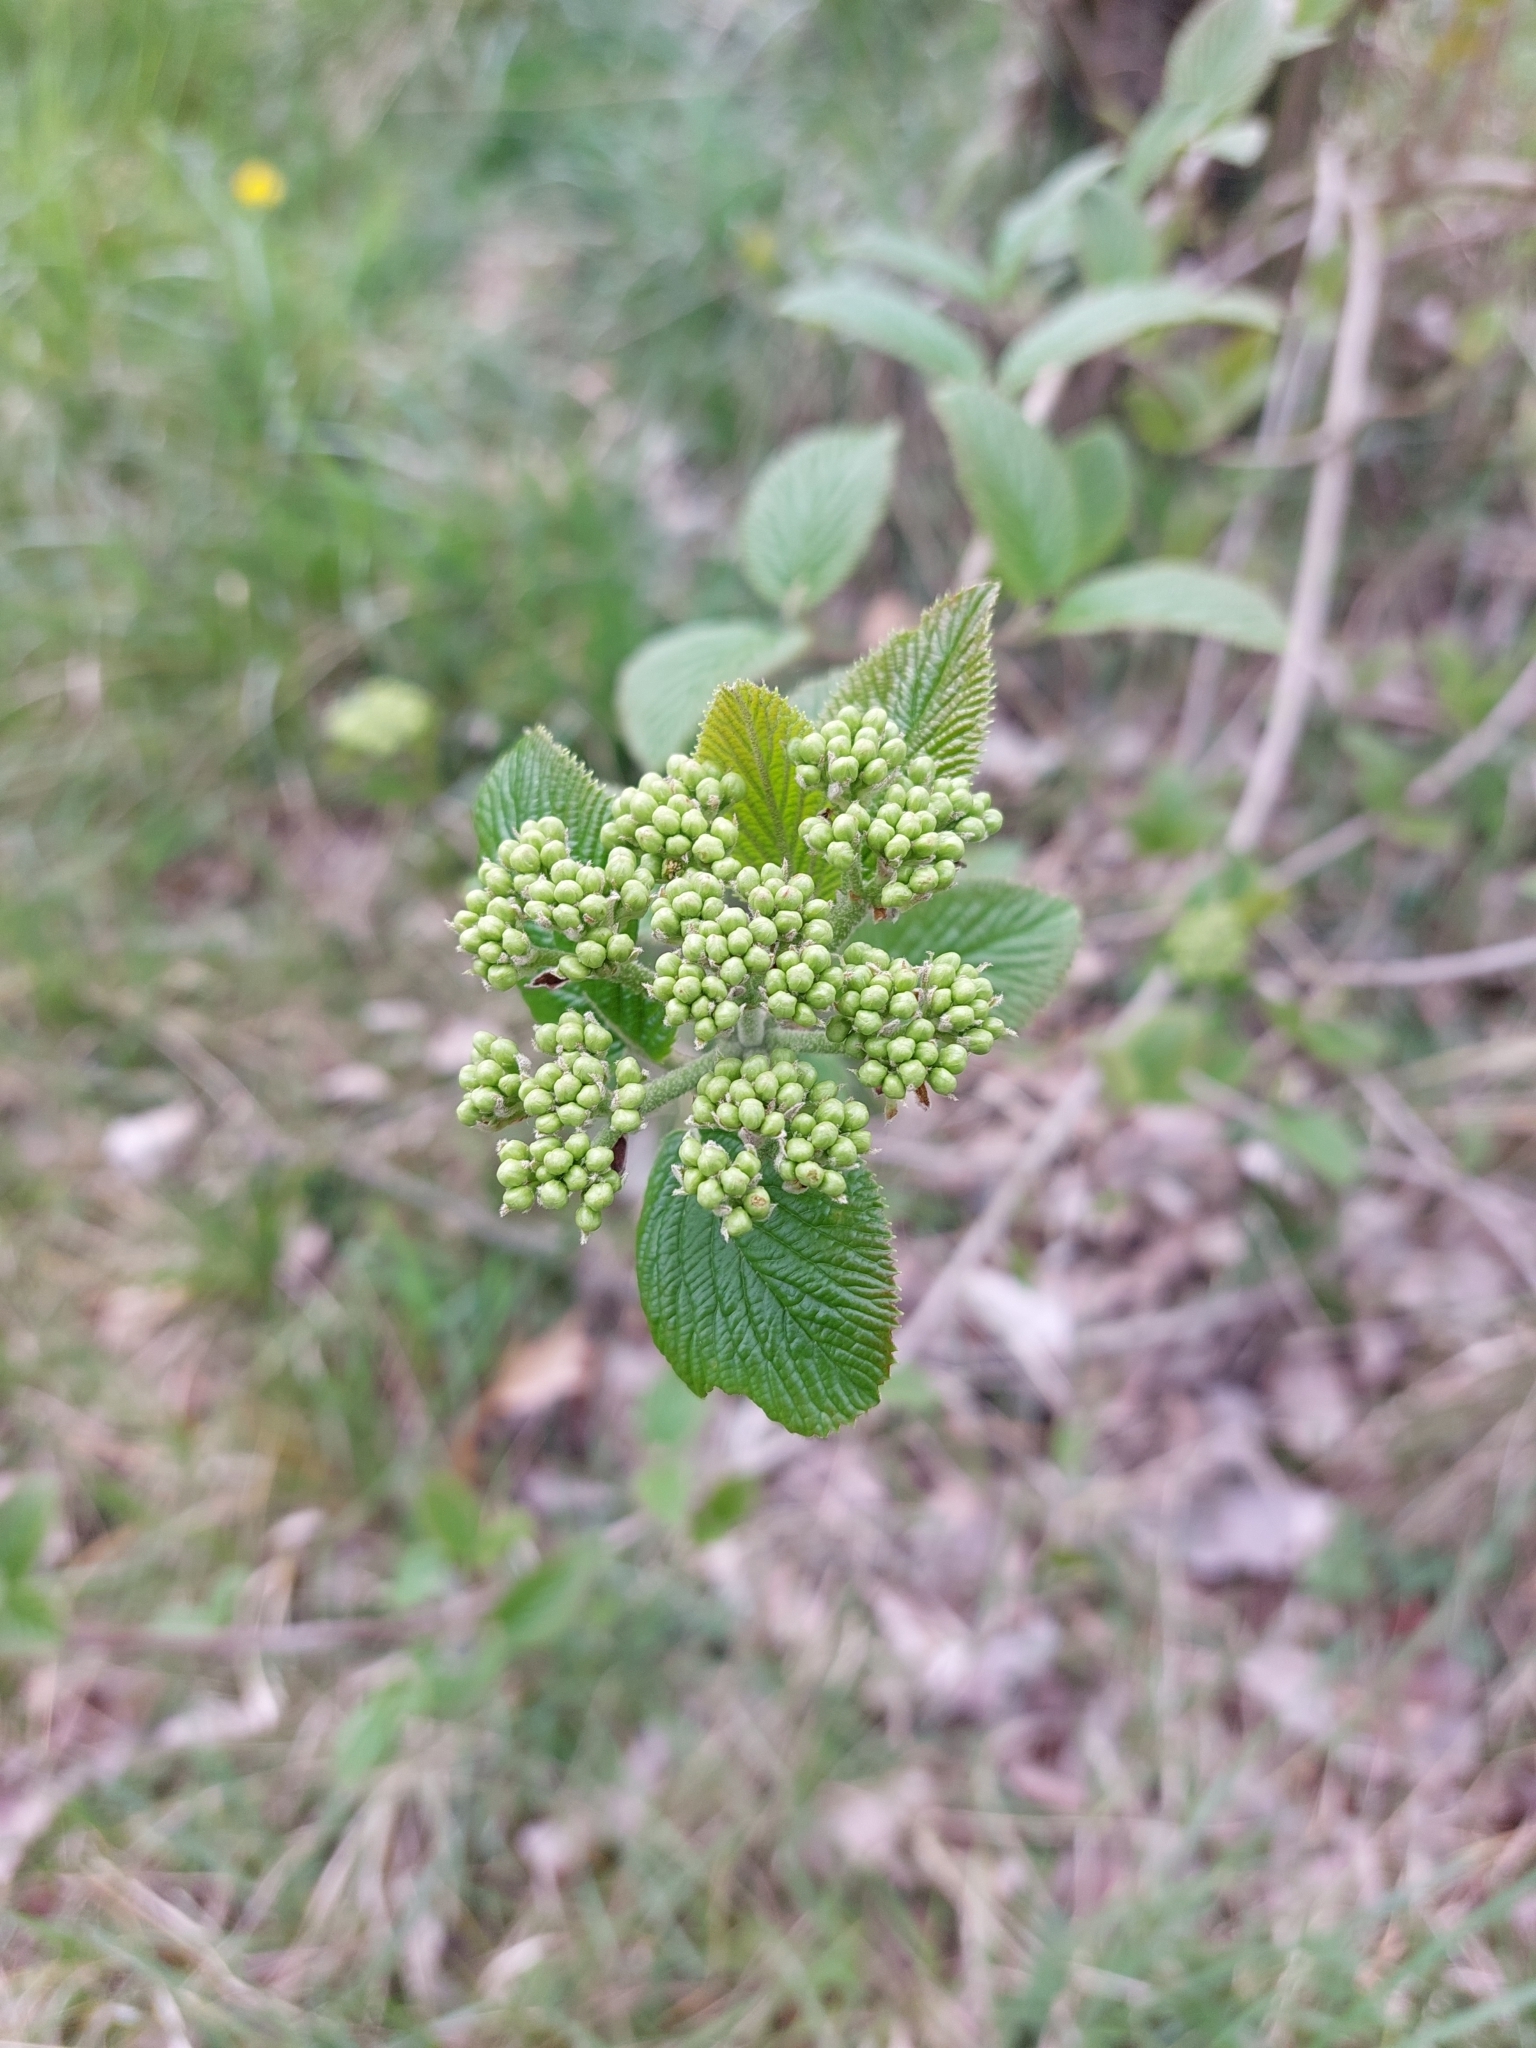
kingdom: Plantae
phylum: Tracheophyta
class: Magnoliopsida
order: Dipsacales
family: Viburnaceae
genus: Viburnum
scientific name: Viburnum lantana
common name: Wayfaring tree
